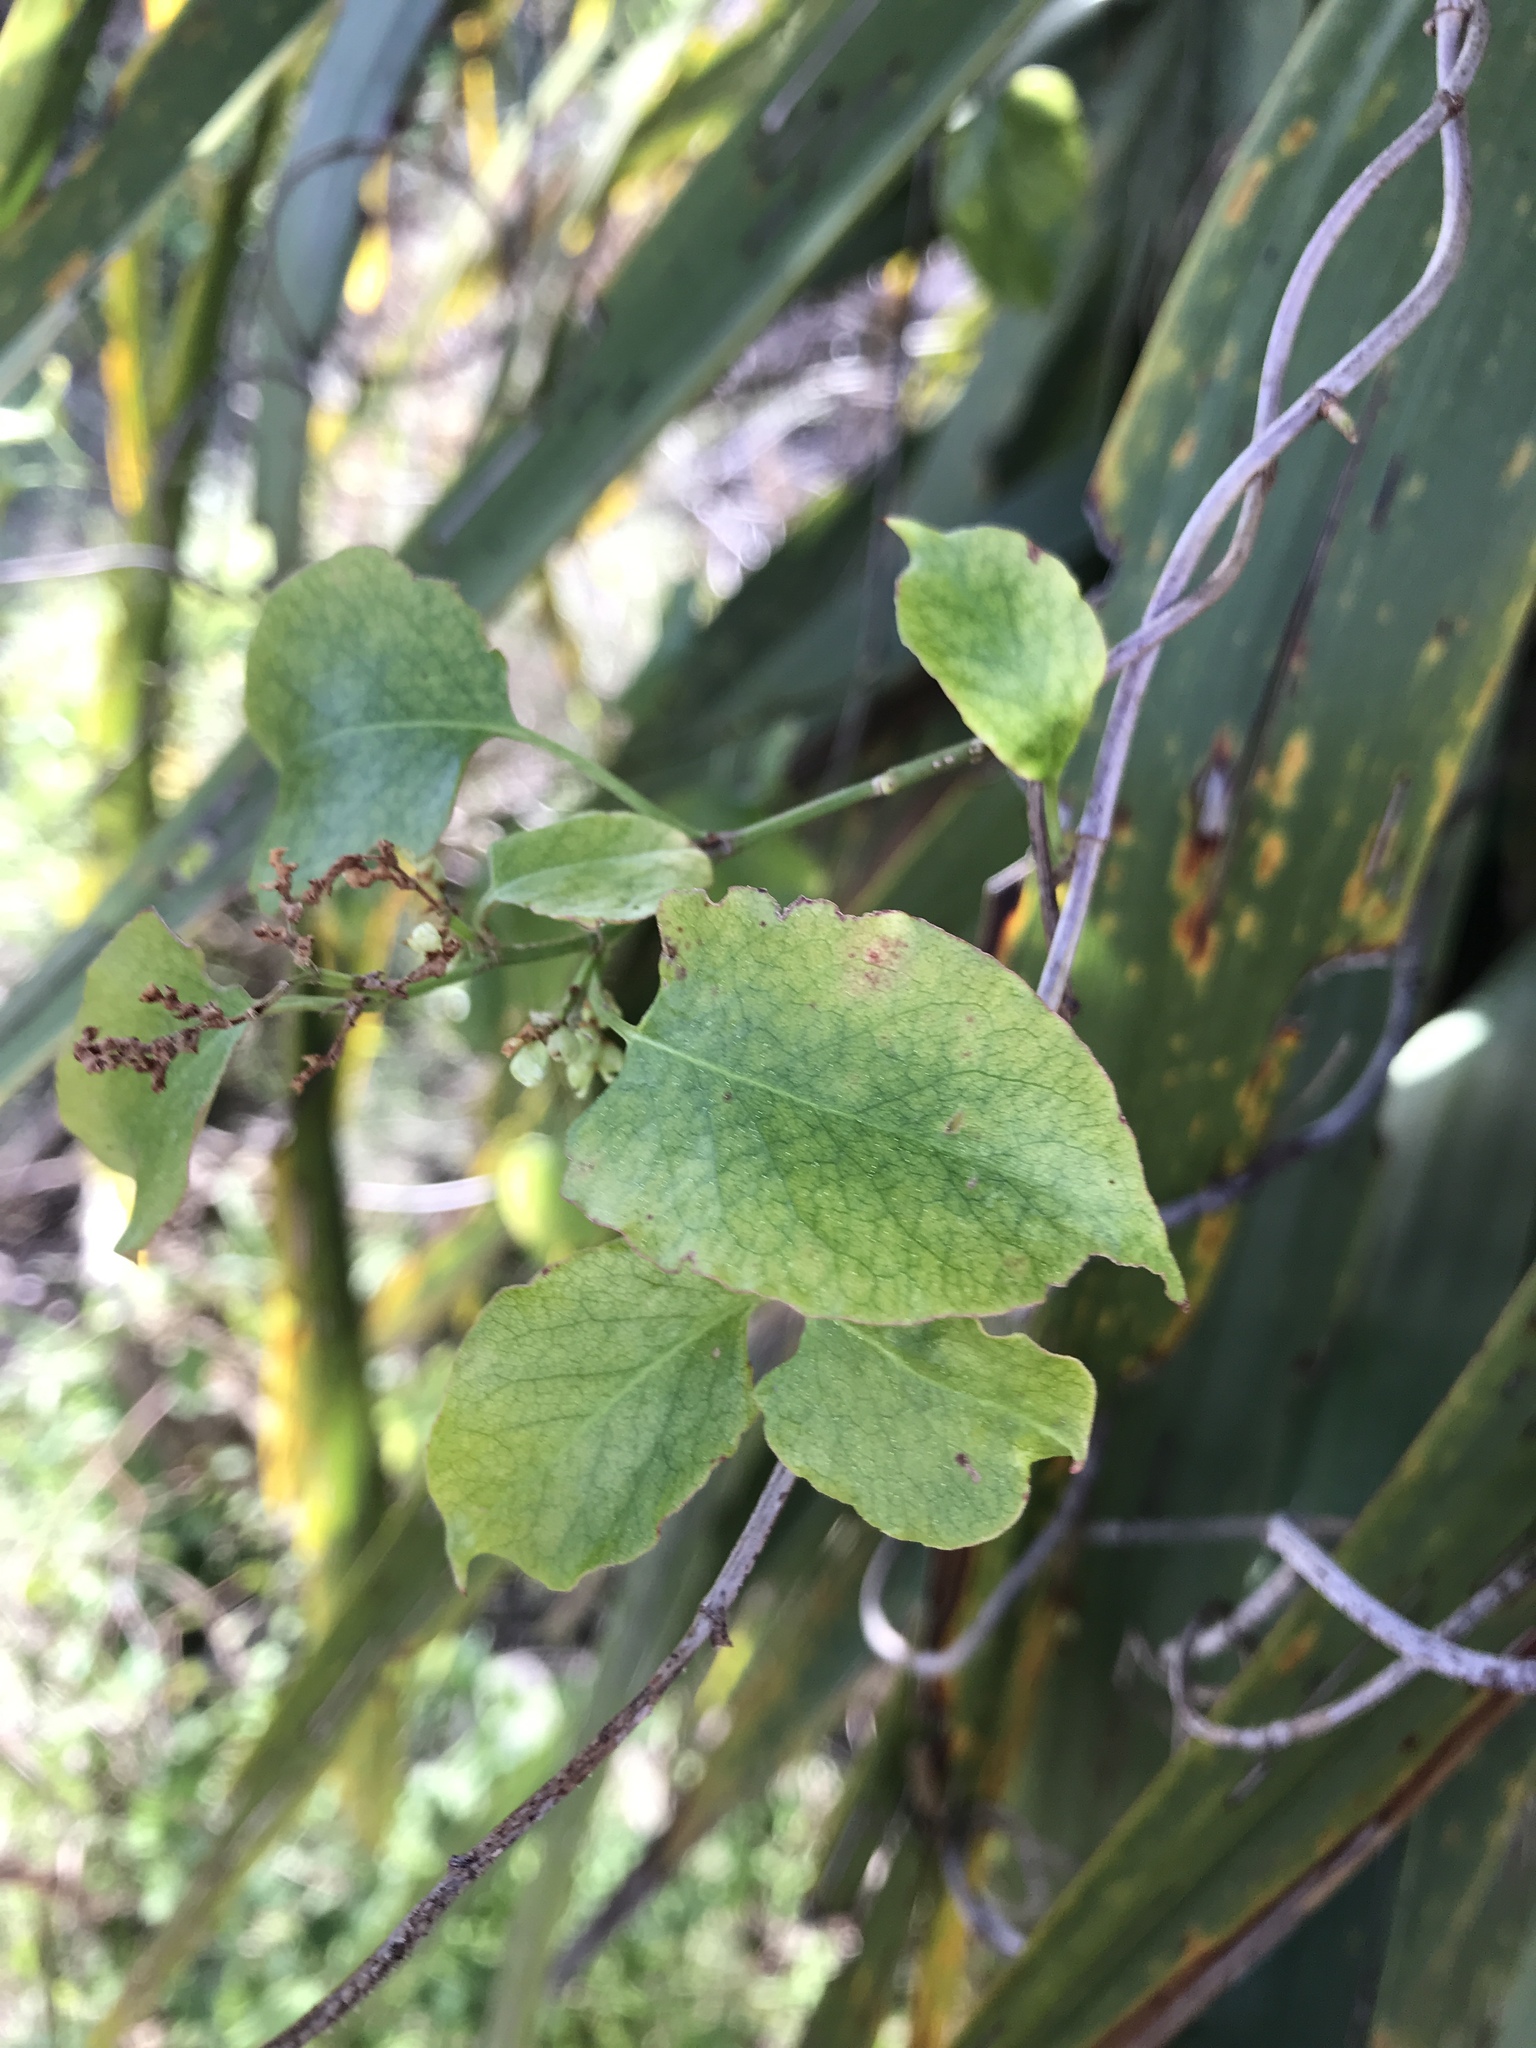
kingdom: Plantae
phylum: Tracheophyta
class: Magnoliopsida
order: Caryophyllales
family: Polygonaceae
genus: Muehlenbeckia
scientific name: Muehlenbeckia australis
